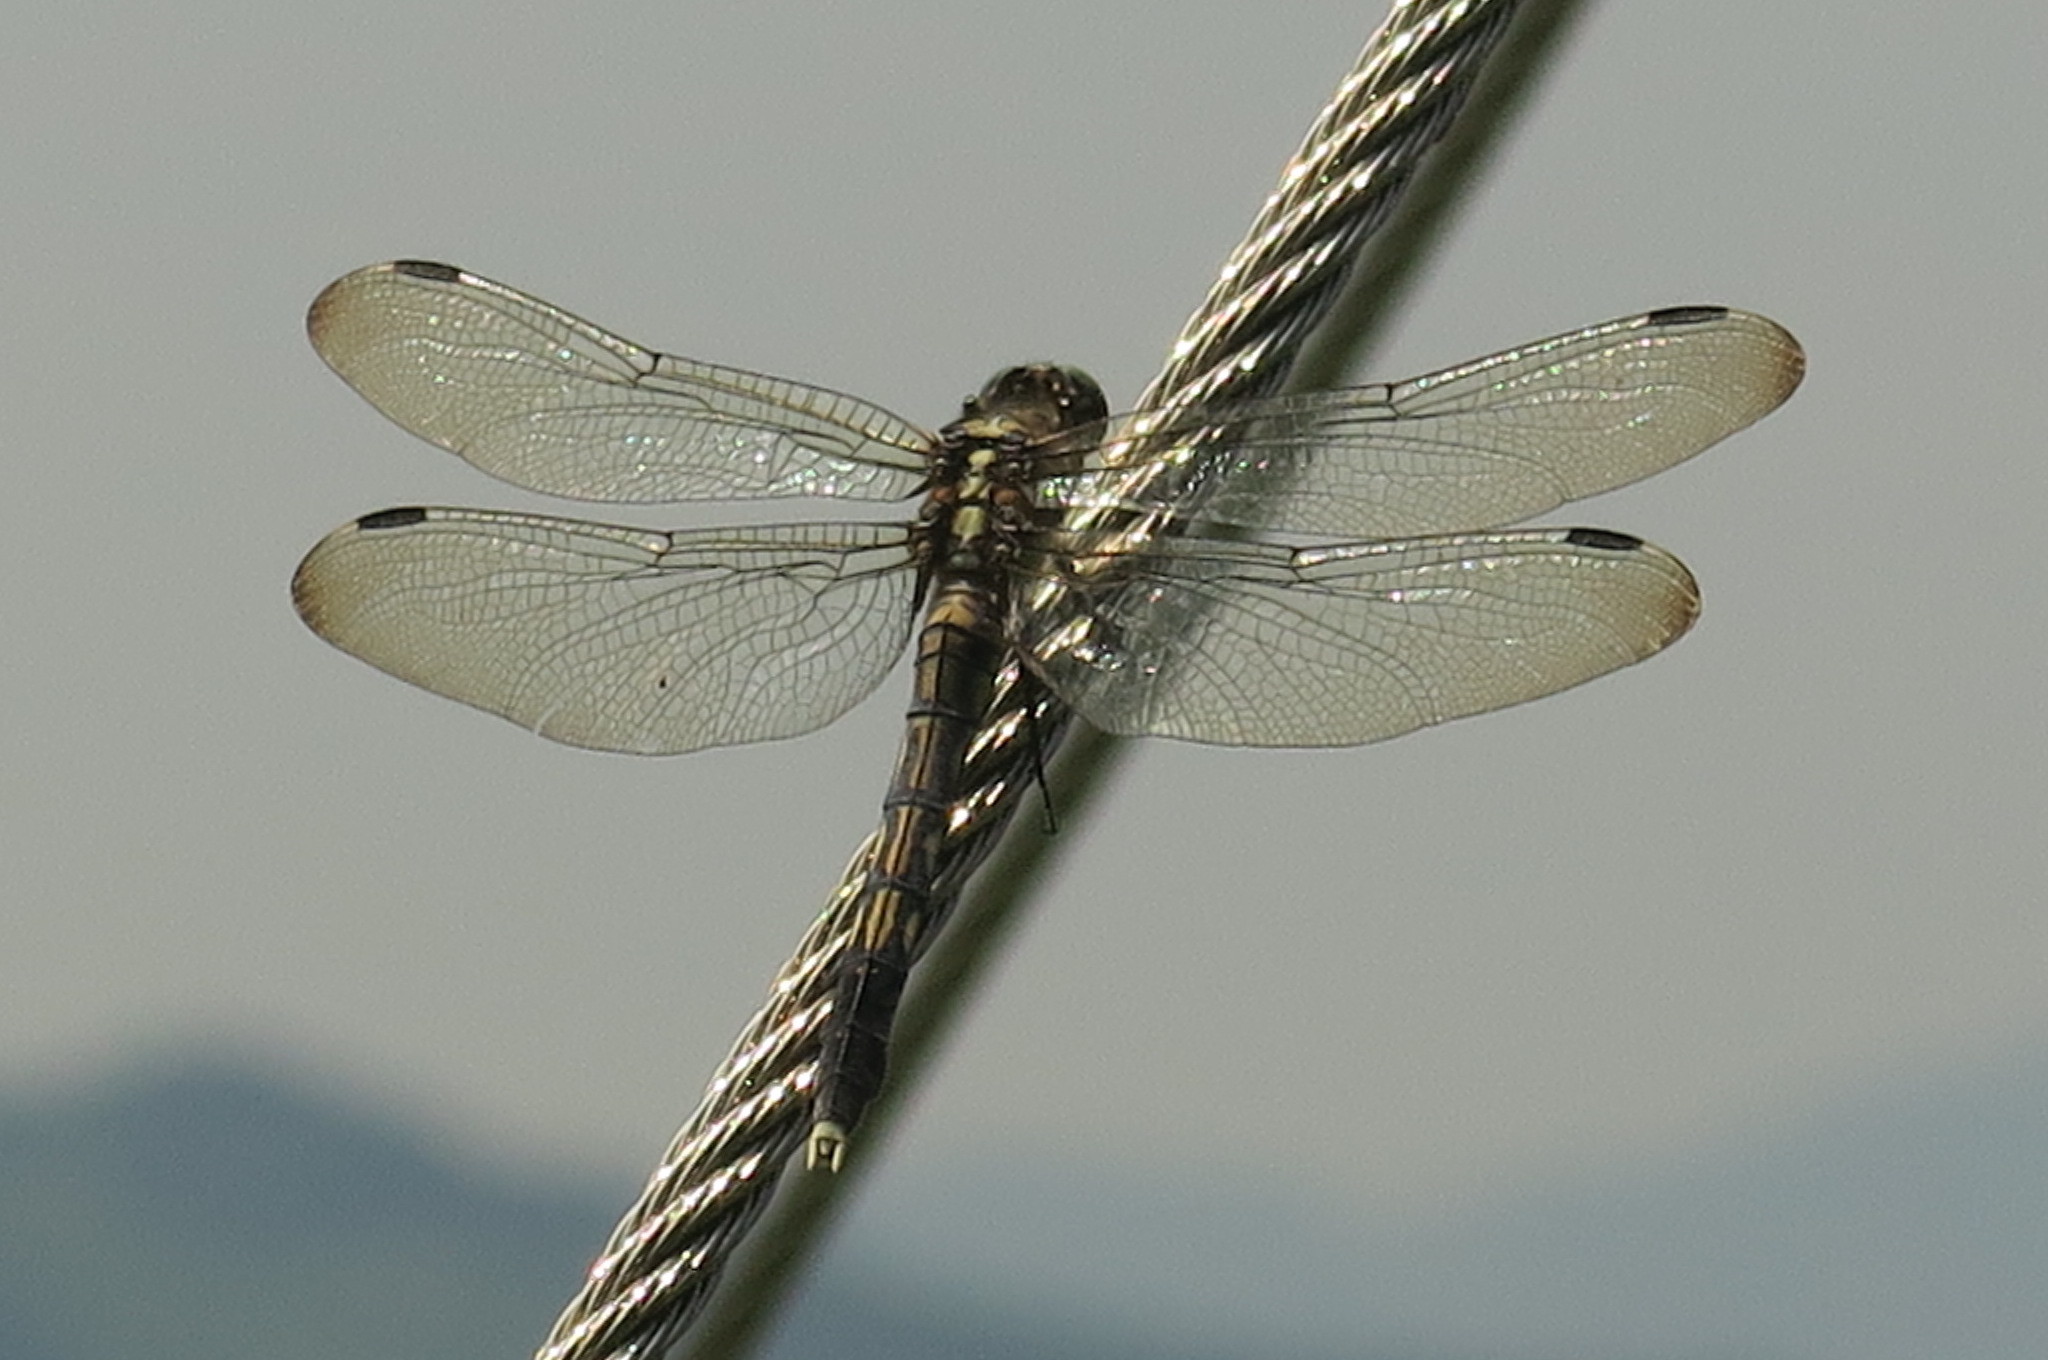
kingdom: Animalia
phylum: Arthropoda
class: Insecta
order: Odonata
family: Libellulidae
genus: Orthetrum
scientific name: Orthetrum albistylum
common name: White-tailed skimmer
